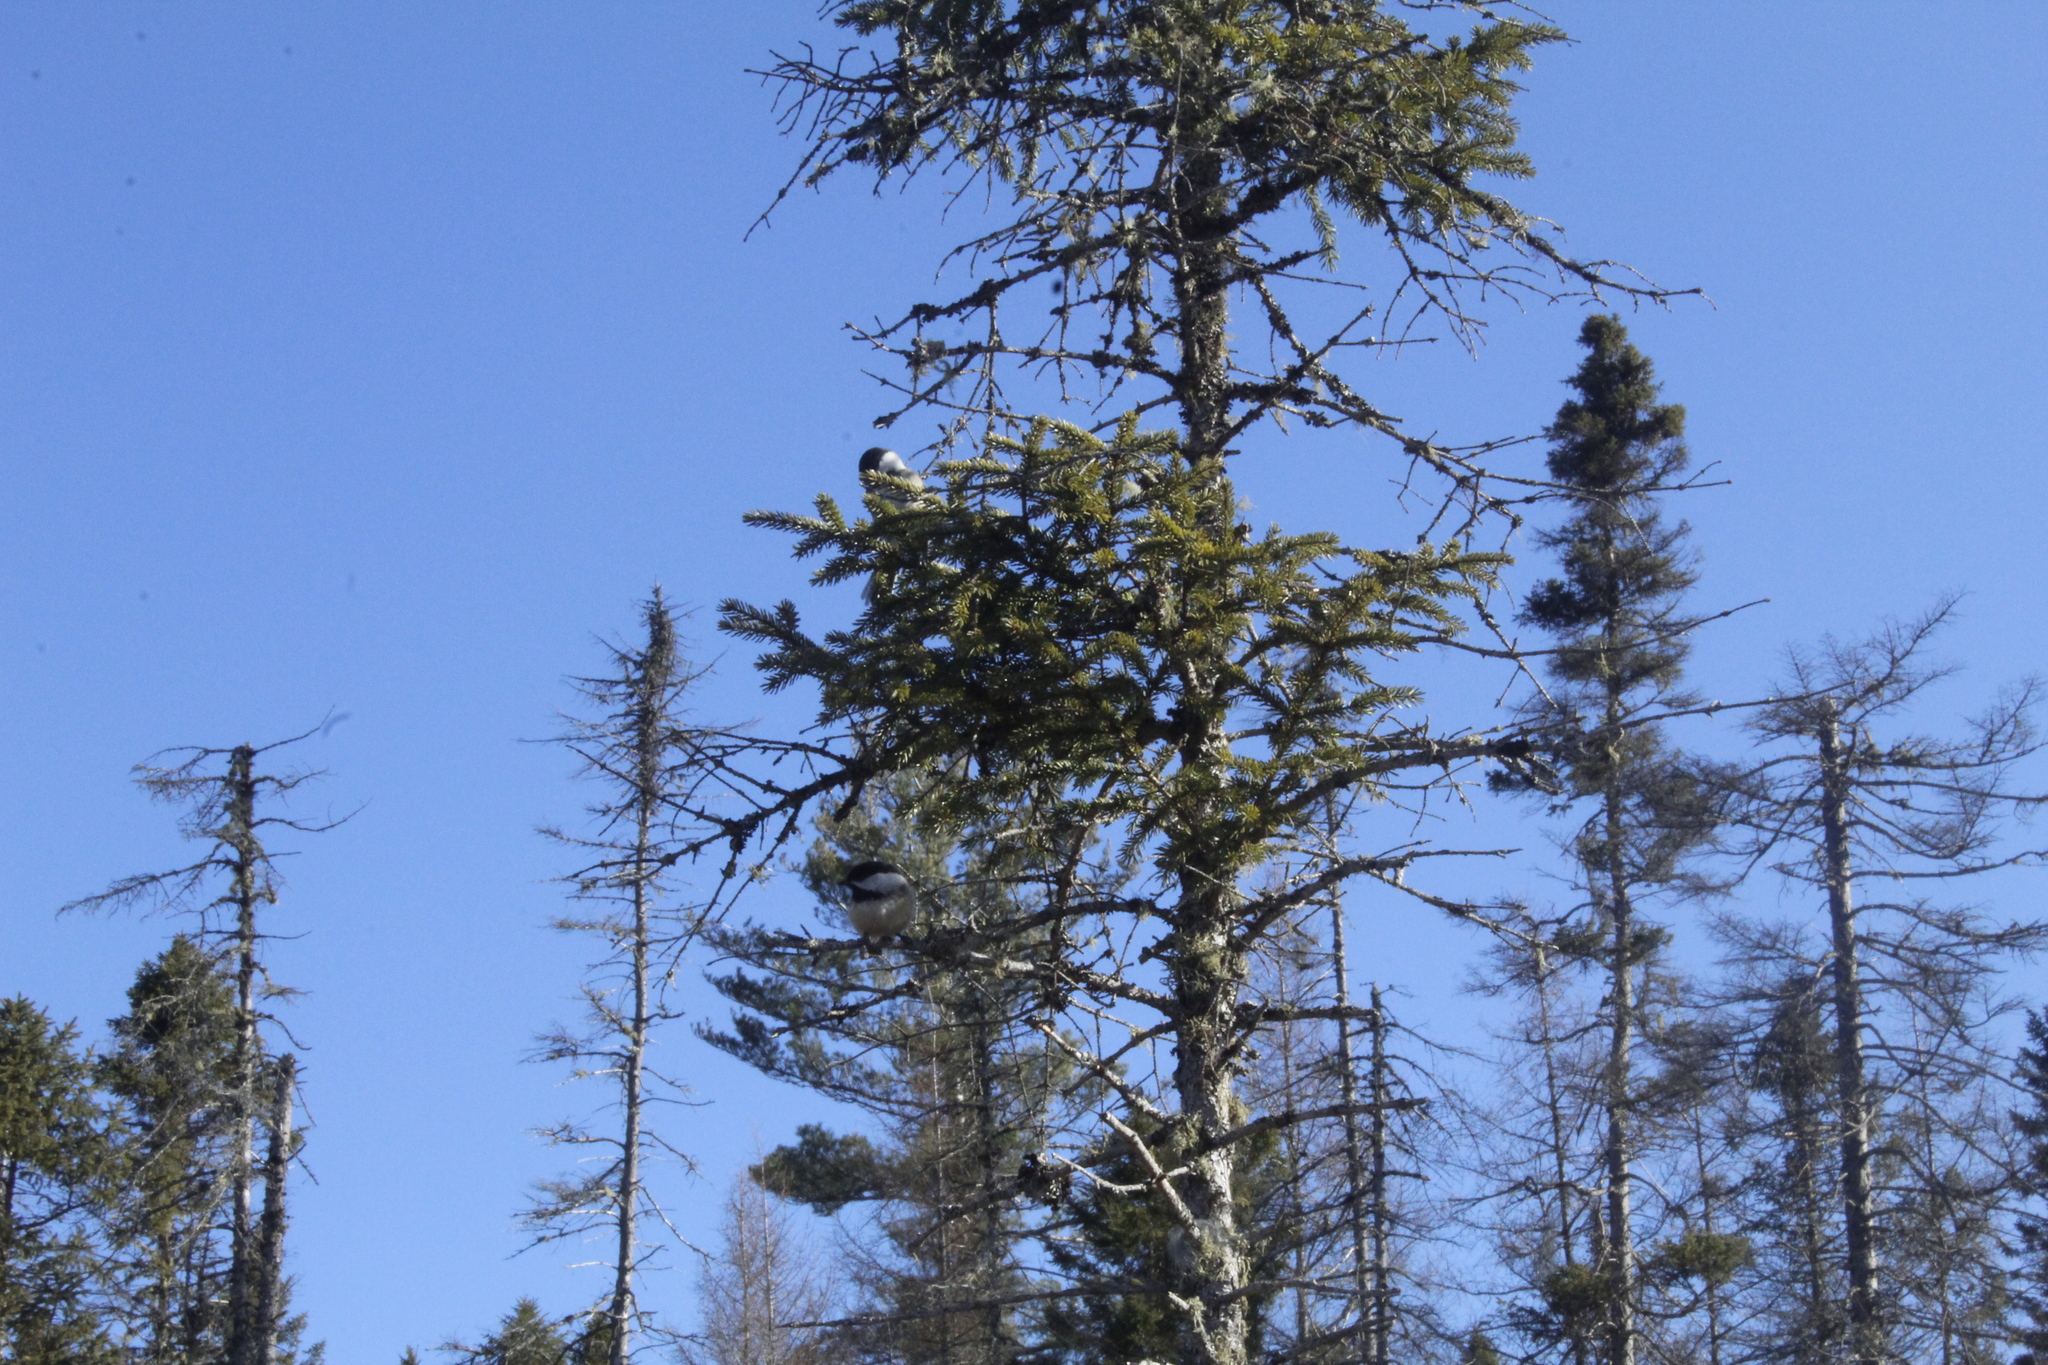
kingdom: Animalia
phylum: Chordata
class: Aves
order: Passeriformes
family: Paridae
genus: Poecile
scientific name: Poecile atricapillus
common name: Black-capped chickadee
